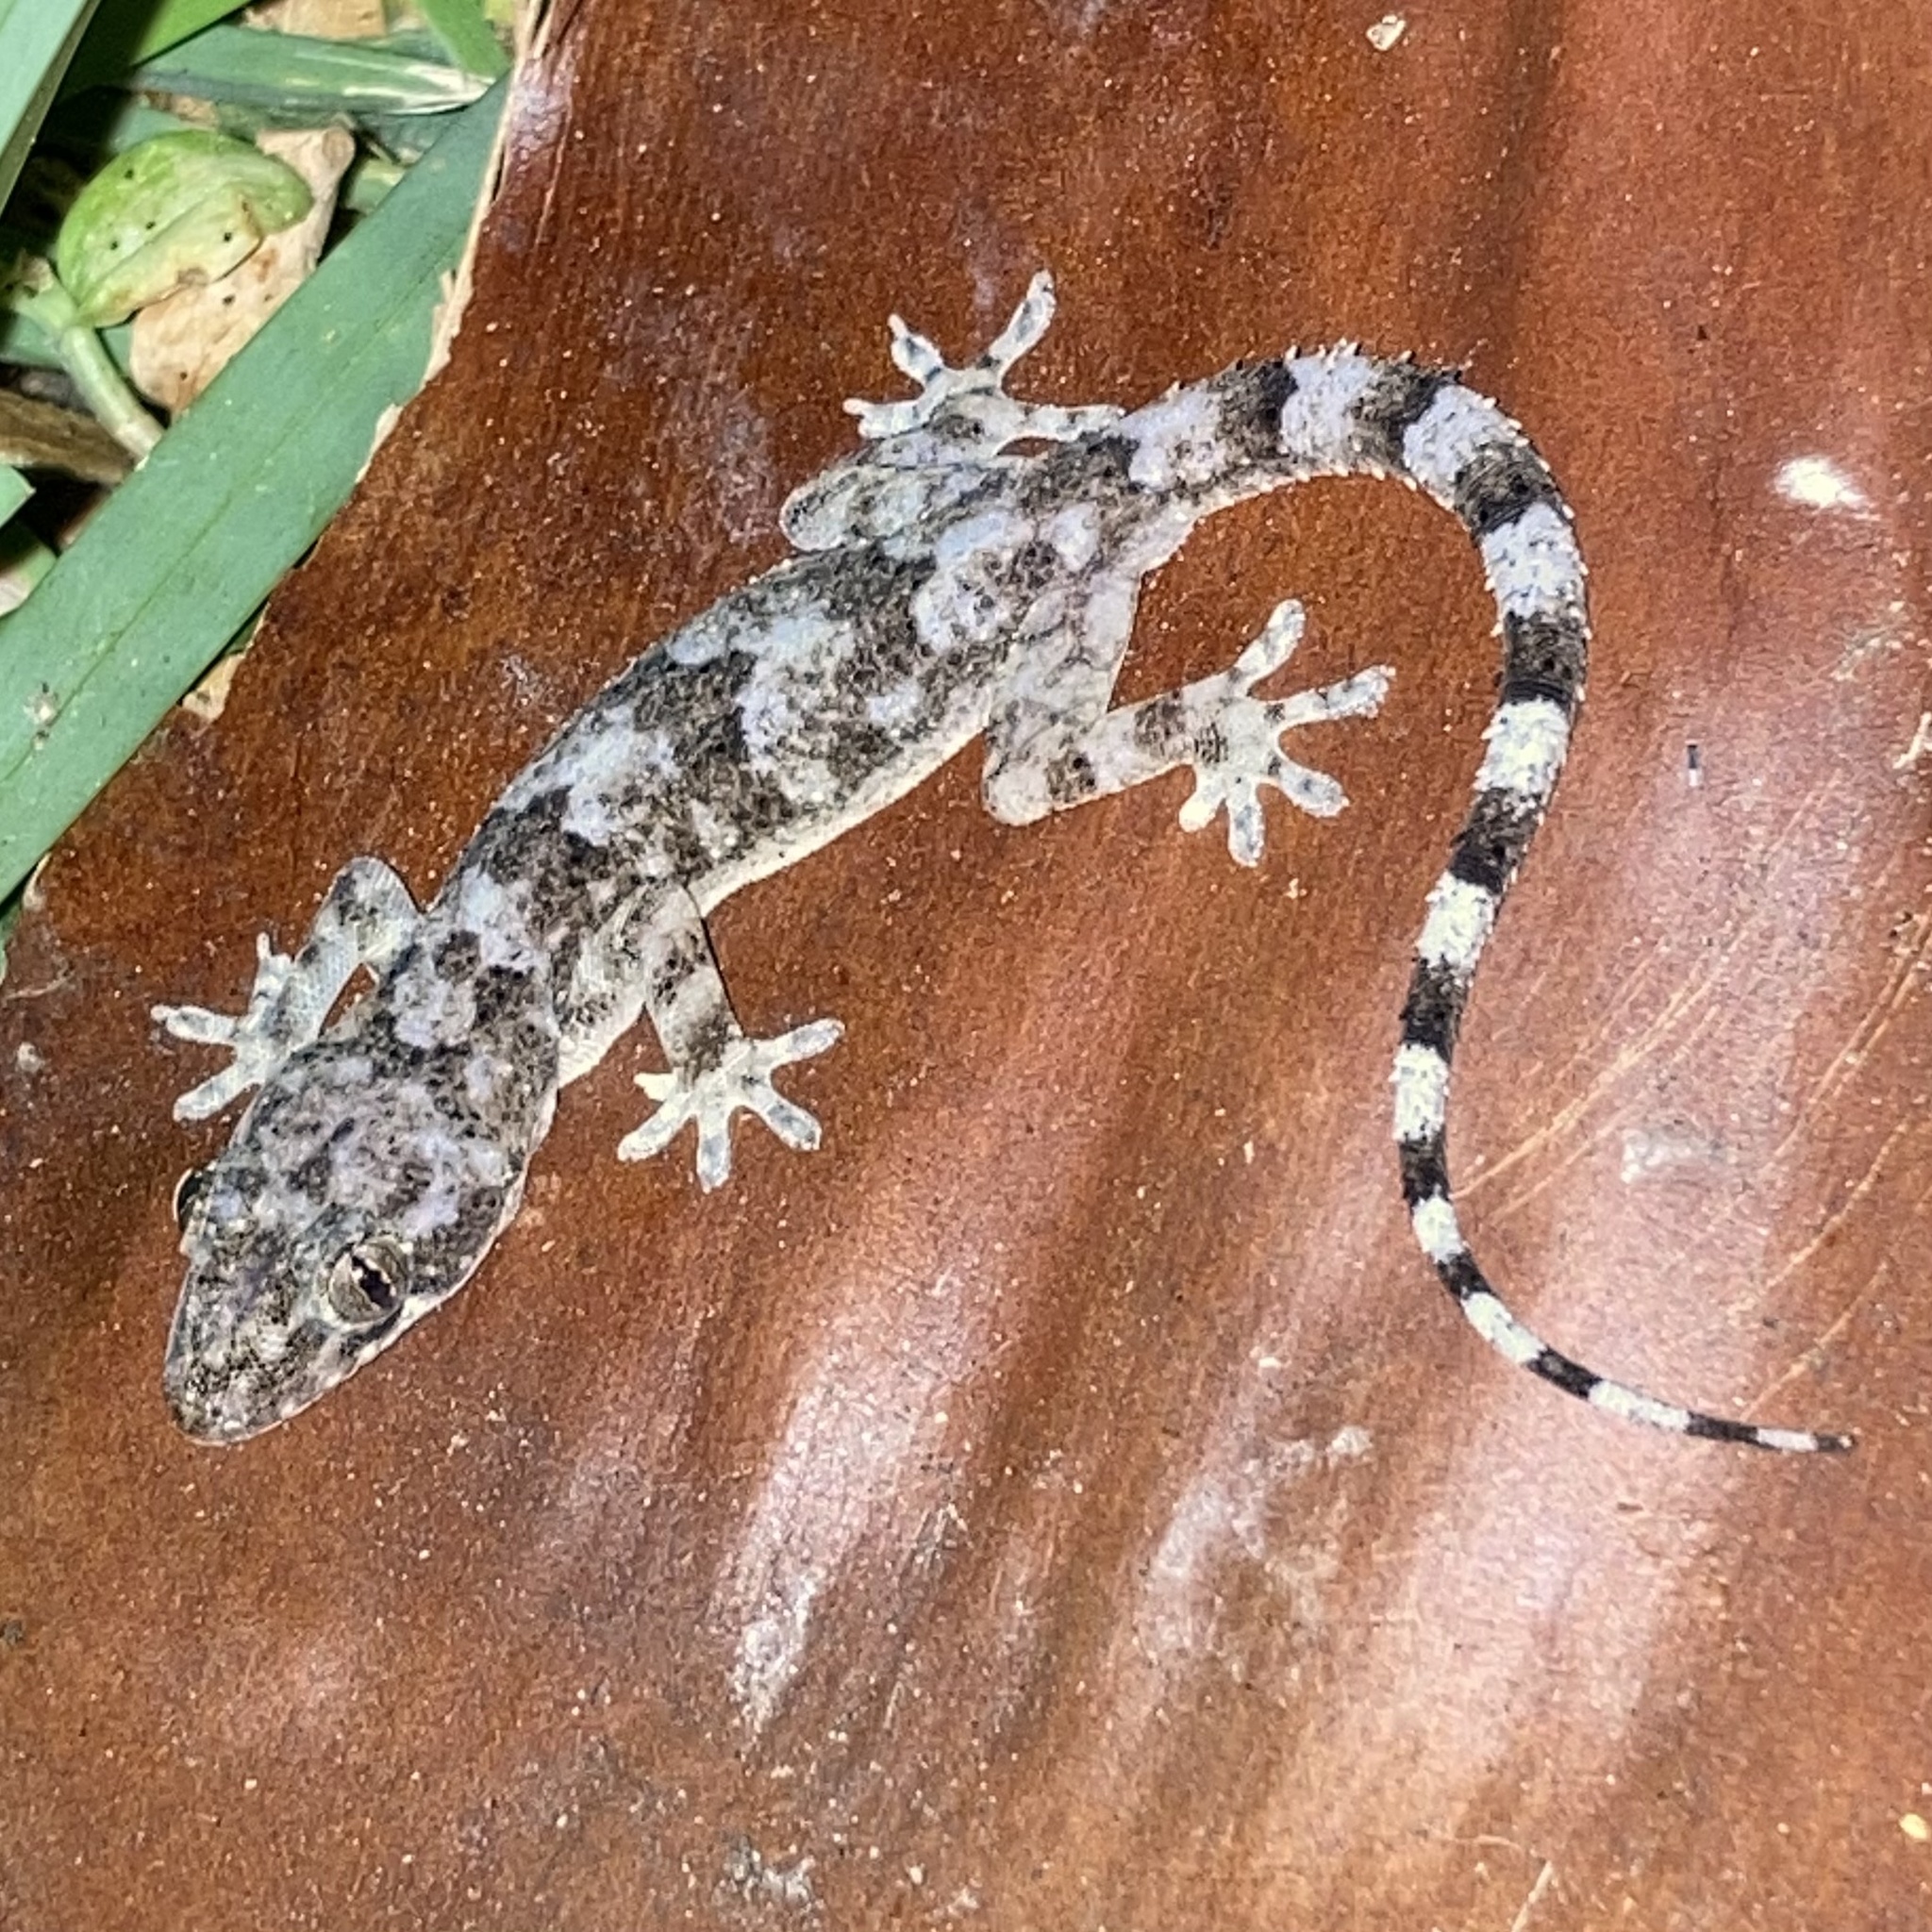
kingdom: Animalia
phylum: Chordata
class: Squamata
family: Gekkonidae
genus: Hemidactylus
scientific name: Hemidactylus mabouia
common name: House gecko
